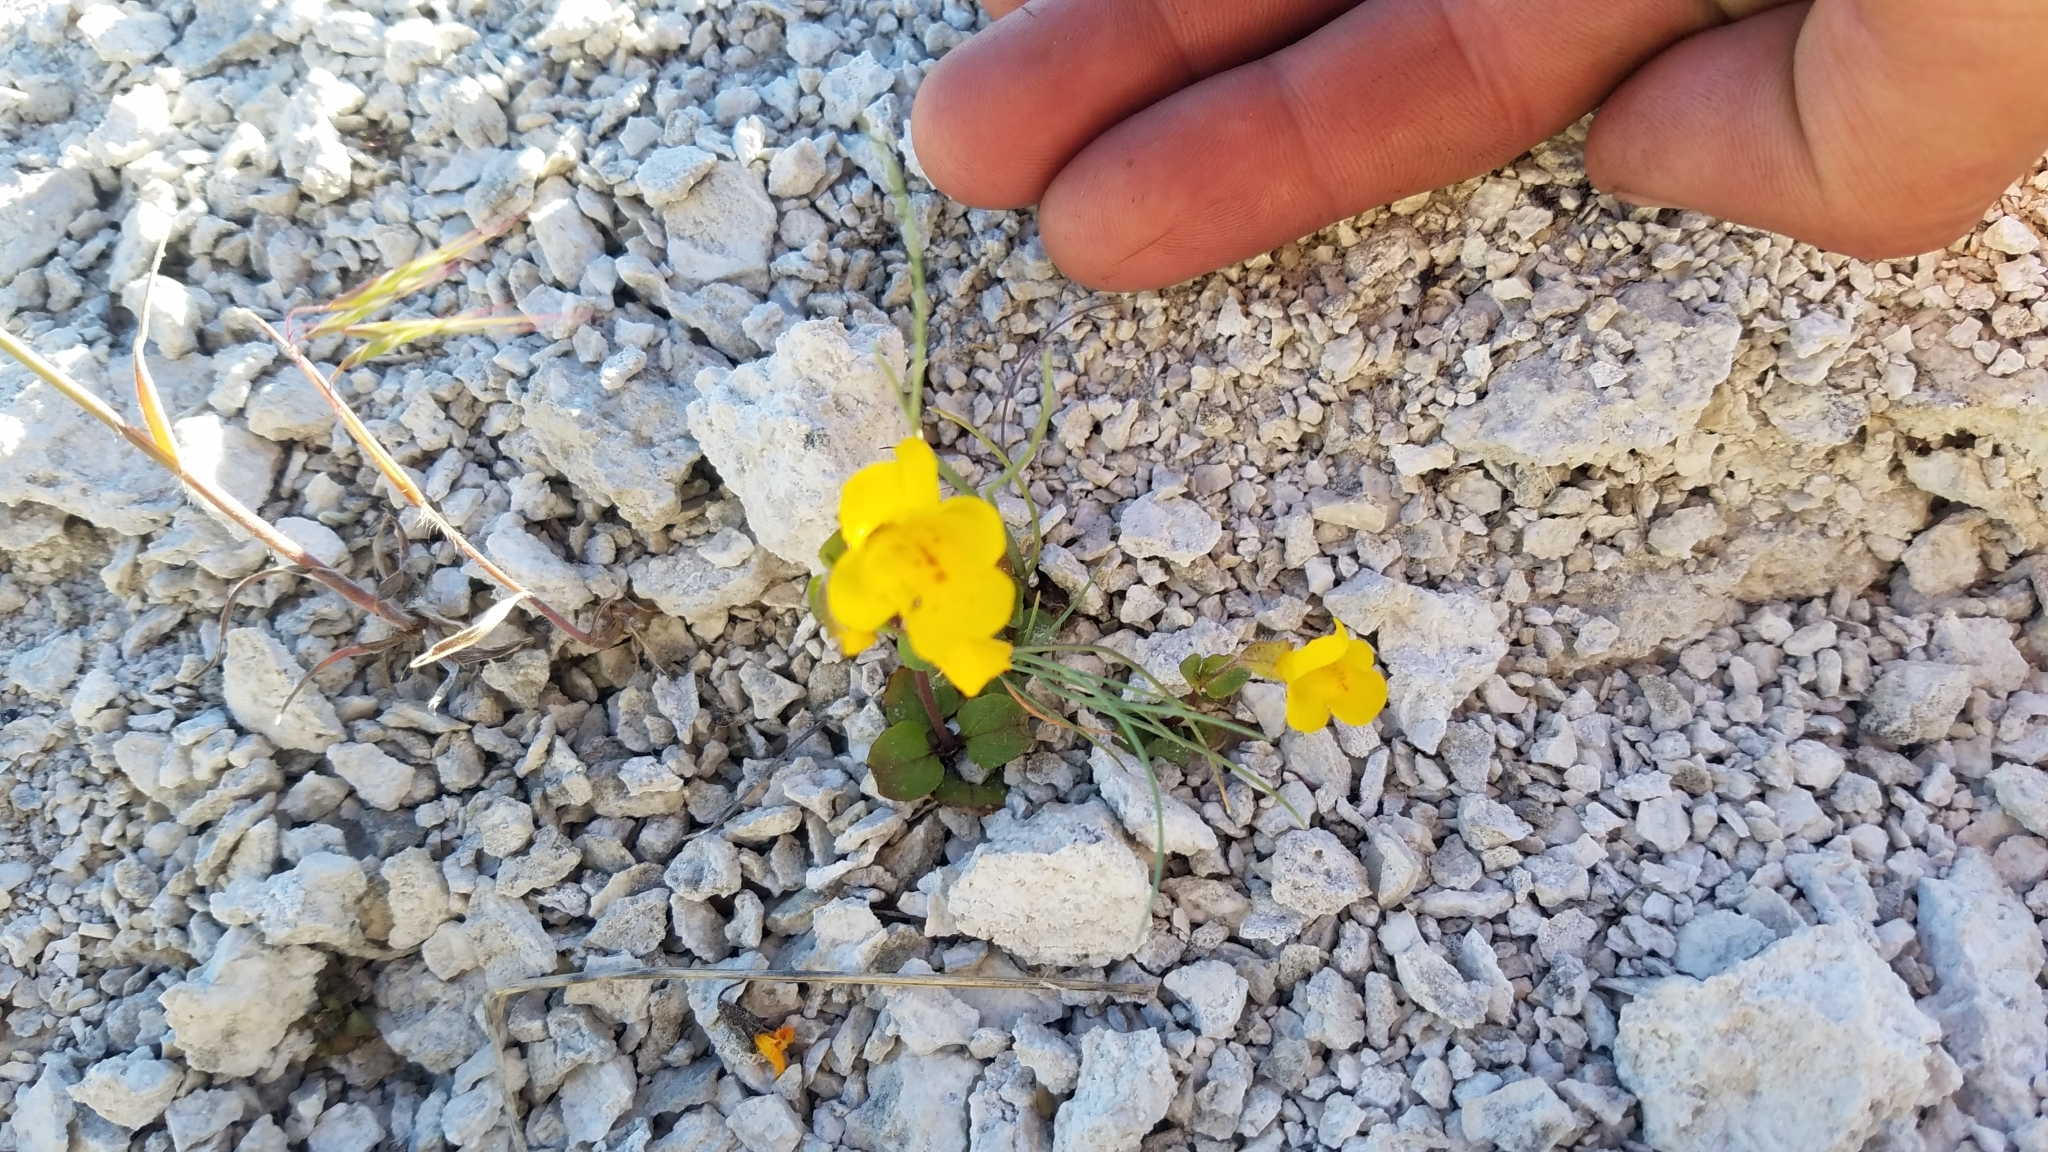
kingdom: Plantae
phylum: Tracheophyta
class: Magnoliopsida
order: Lamiales
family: Phrymaceae
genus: Erythranthe
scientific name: Erythranthe thermalis
